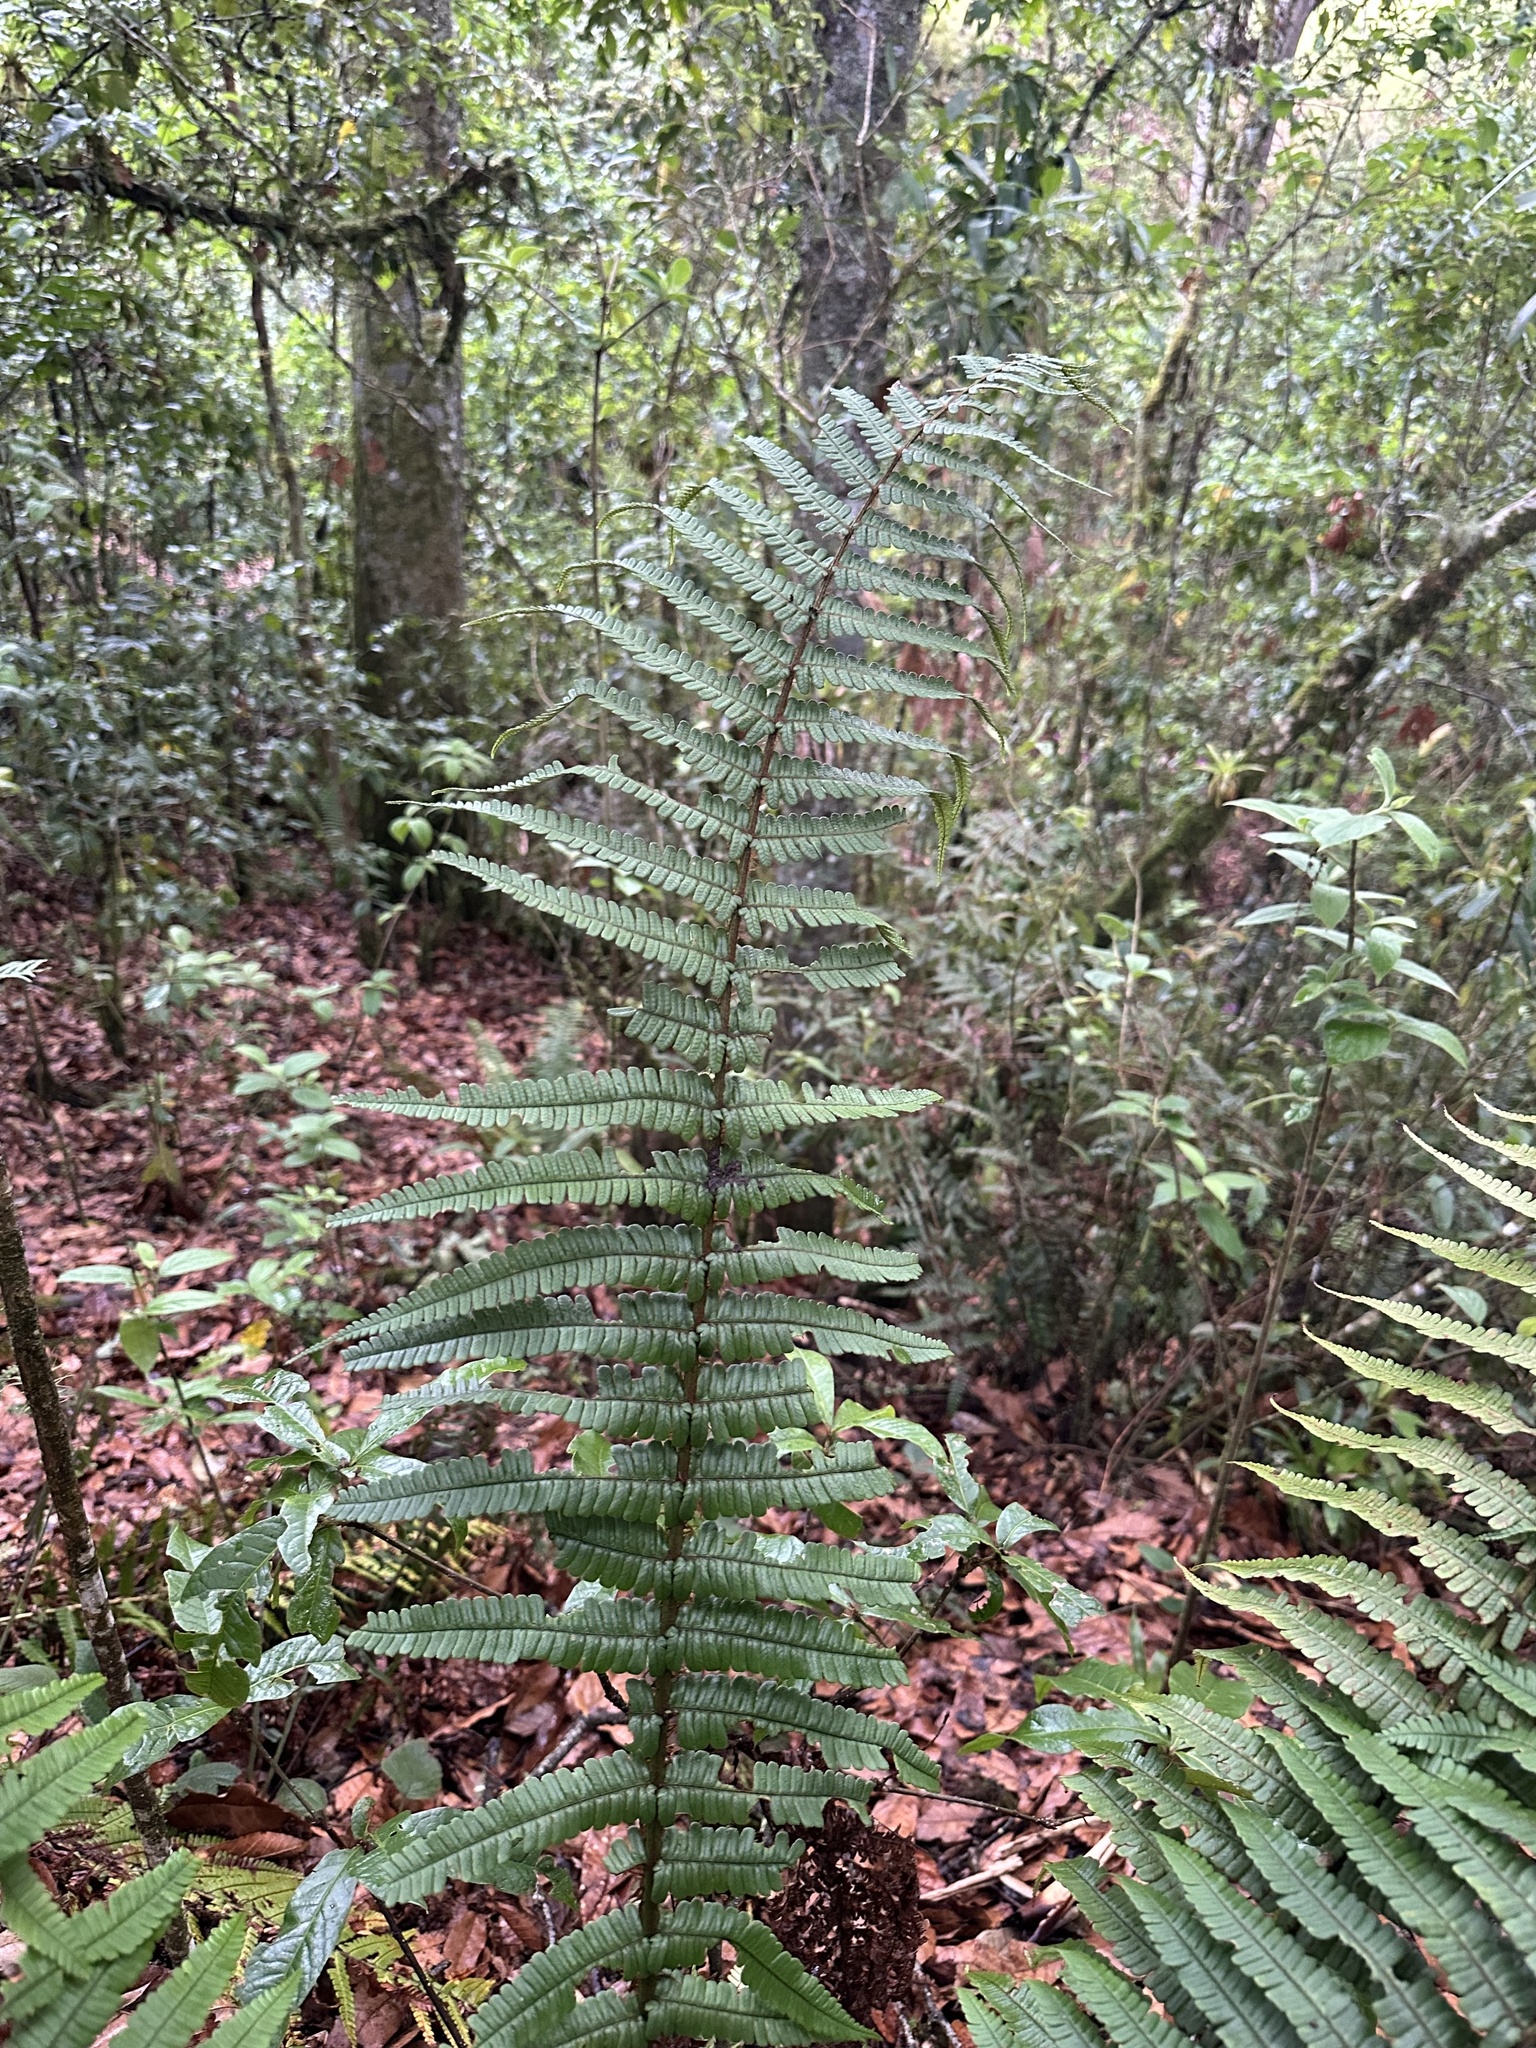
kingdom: Plantae
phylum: Tracheophyta
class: Polypodiopsida
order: Polypodiales
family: Dryopteridaceae
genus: Dryopteris
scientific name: Dryopteris wallichiana
